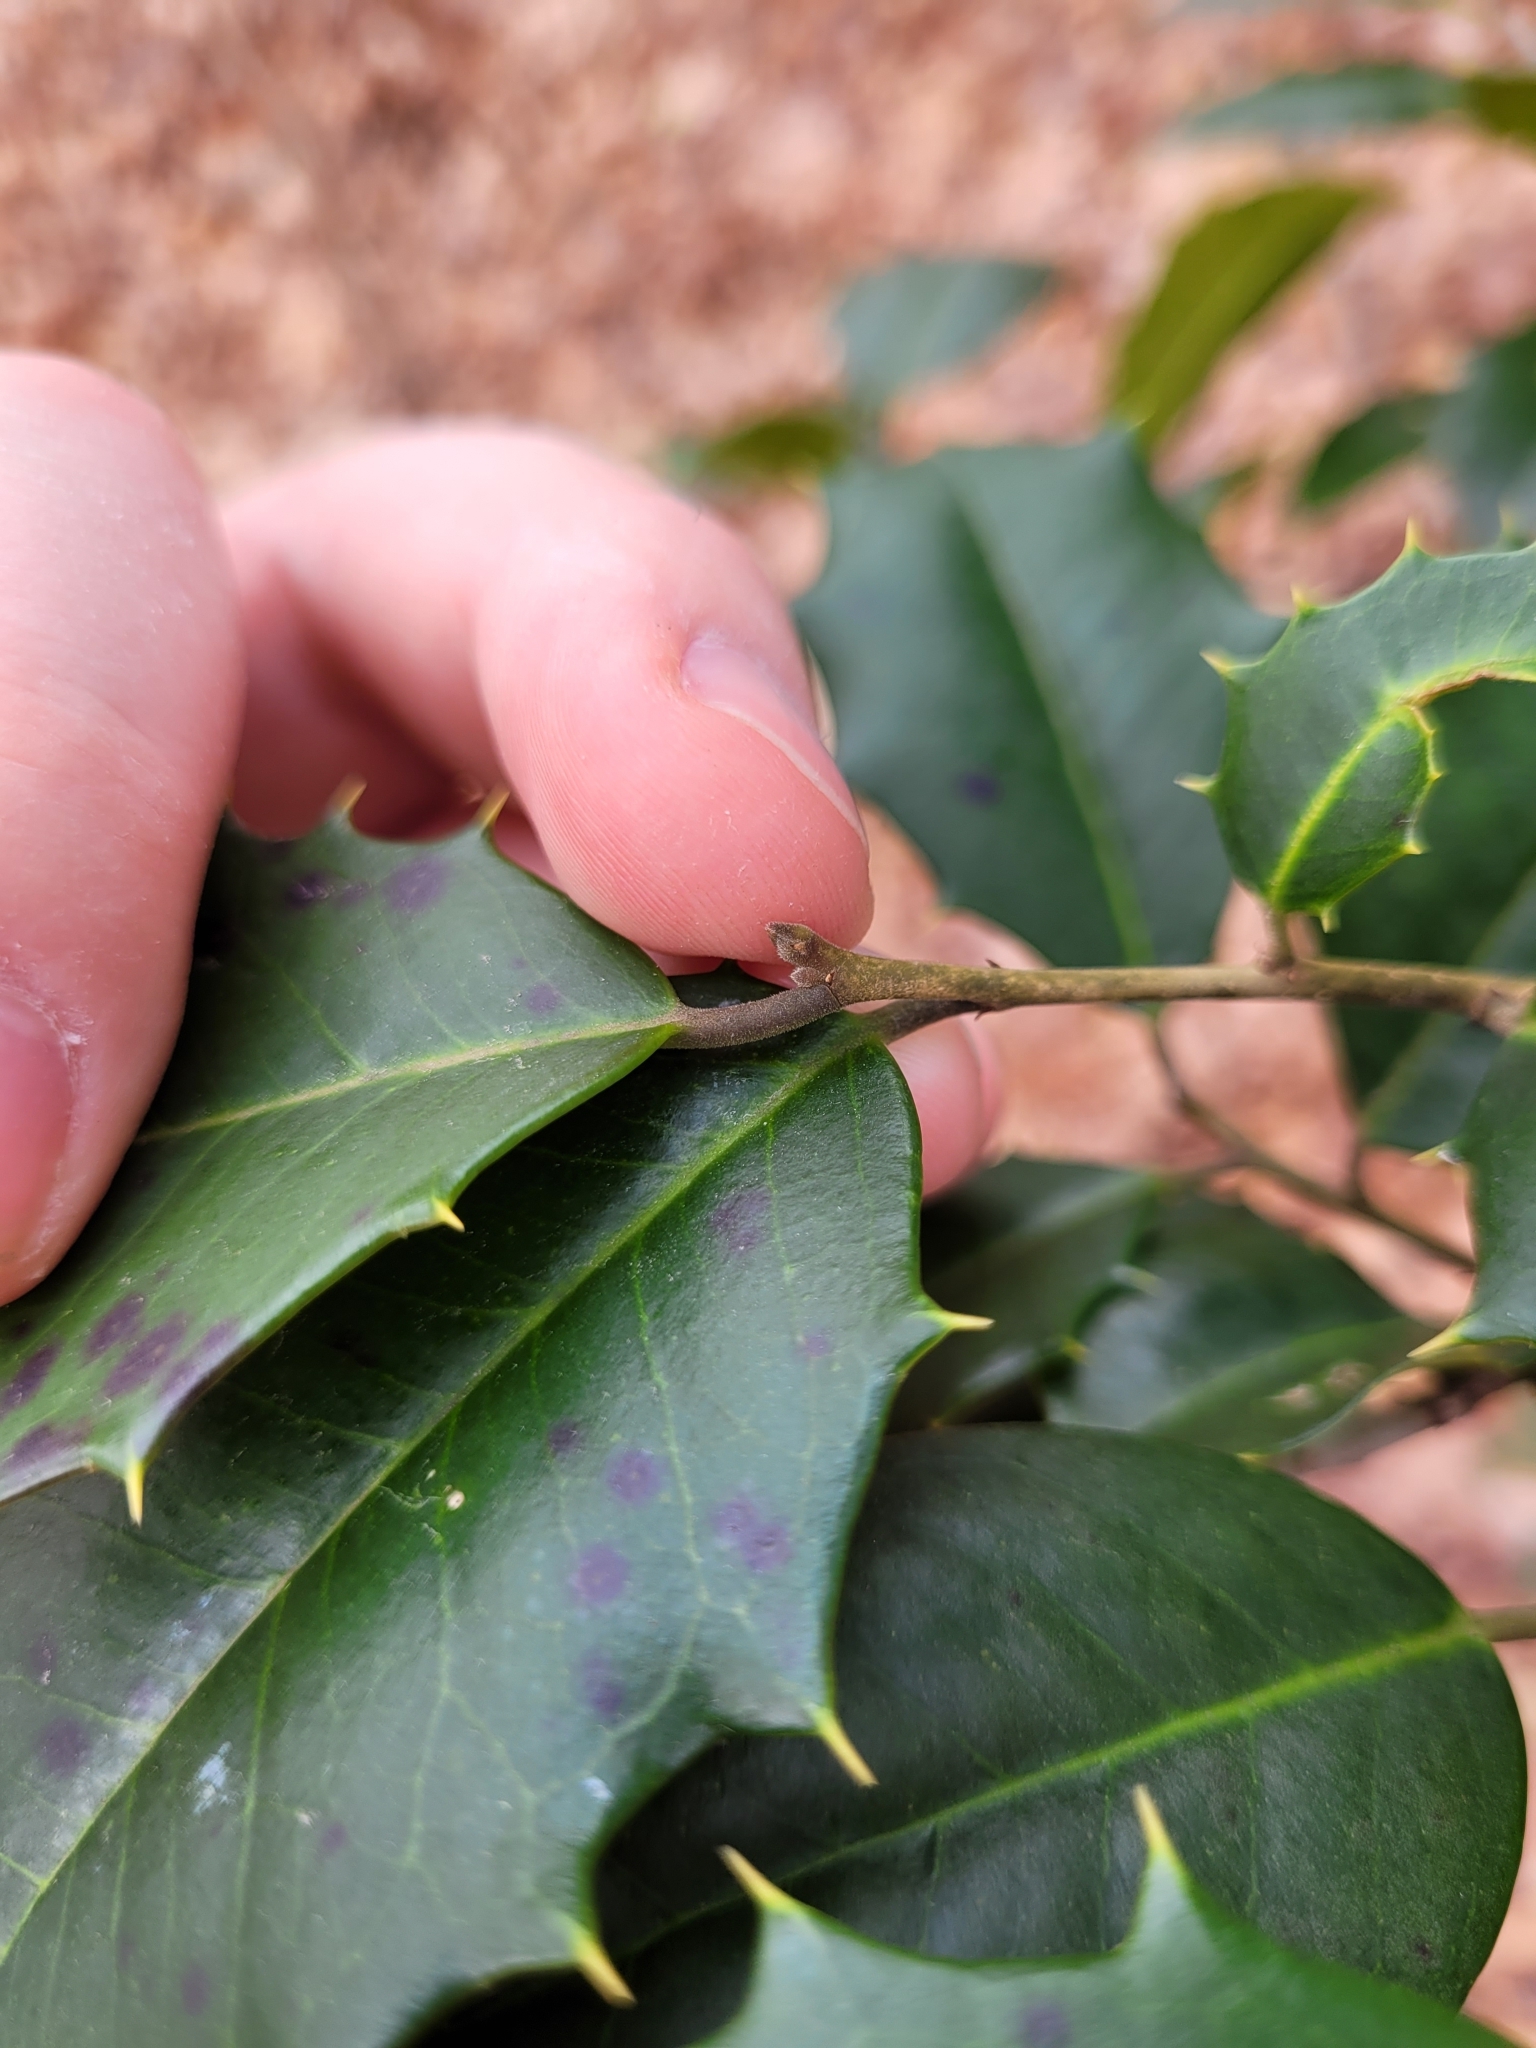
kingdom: Plantae
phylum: Tracheophyta
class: Magnoliopsida
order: Aquifoliales
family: Aquifoliaceae
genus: Ilex
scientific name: Ilex opaca
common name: American holly
